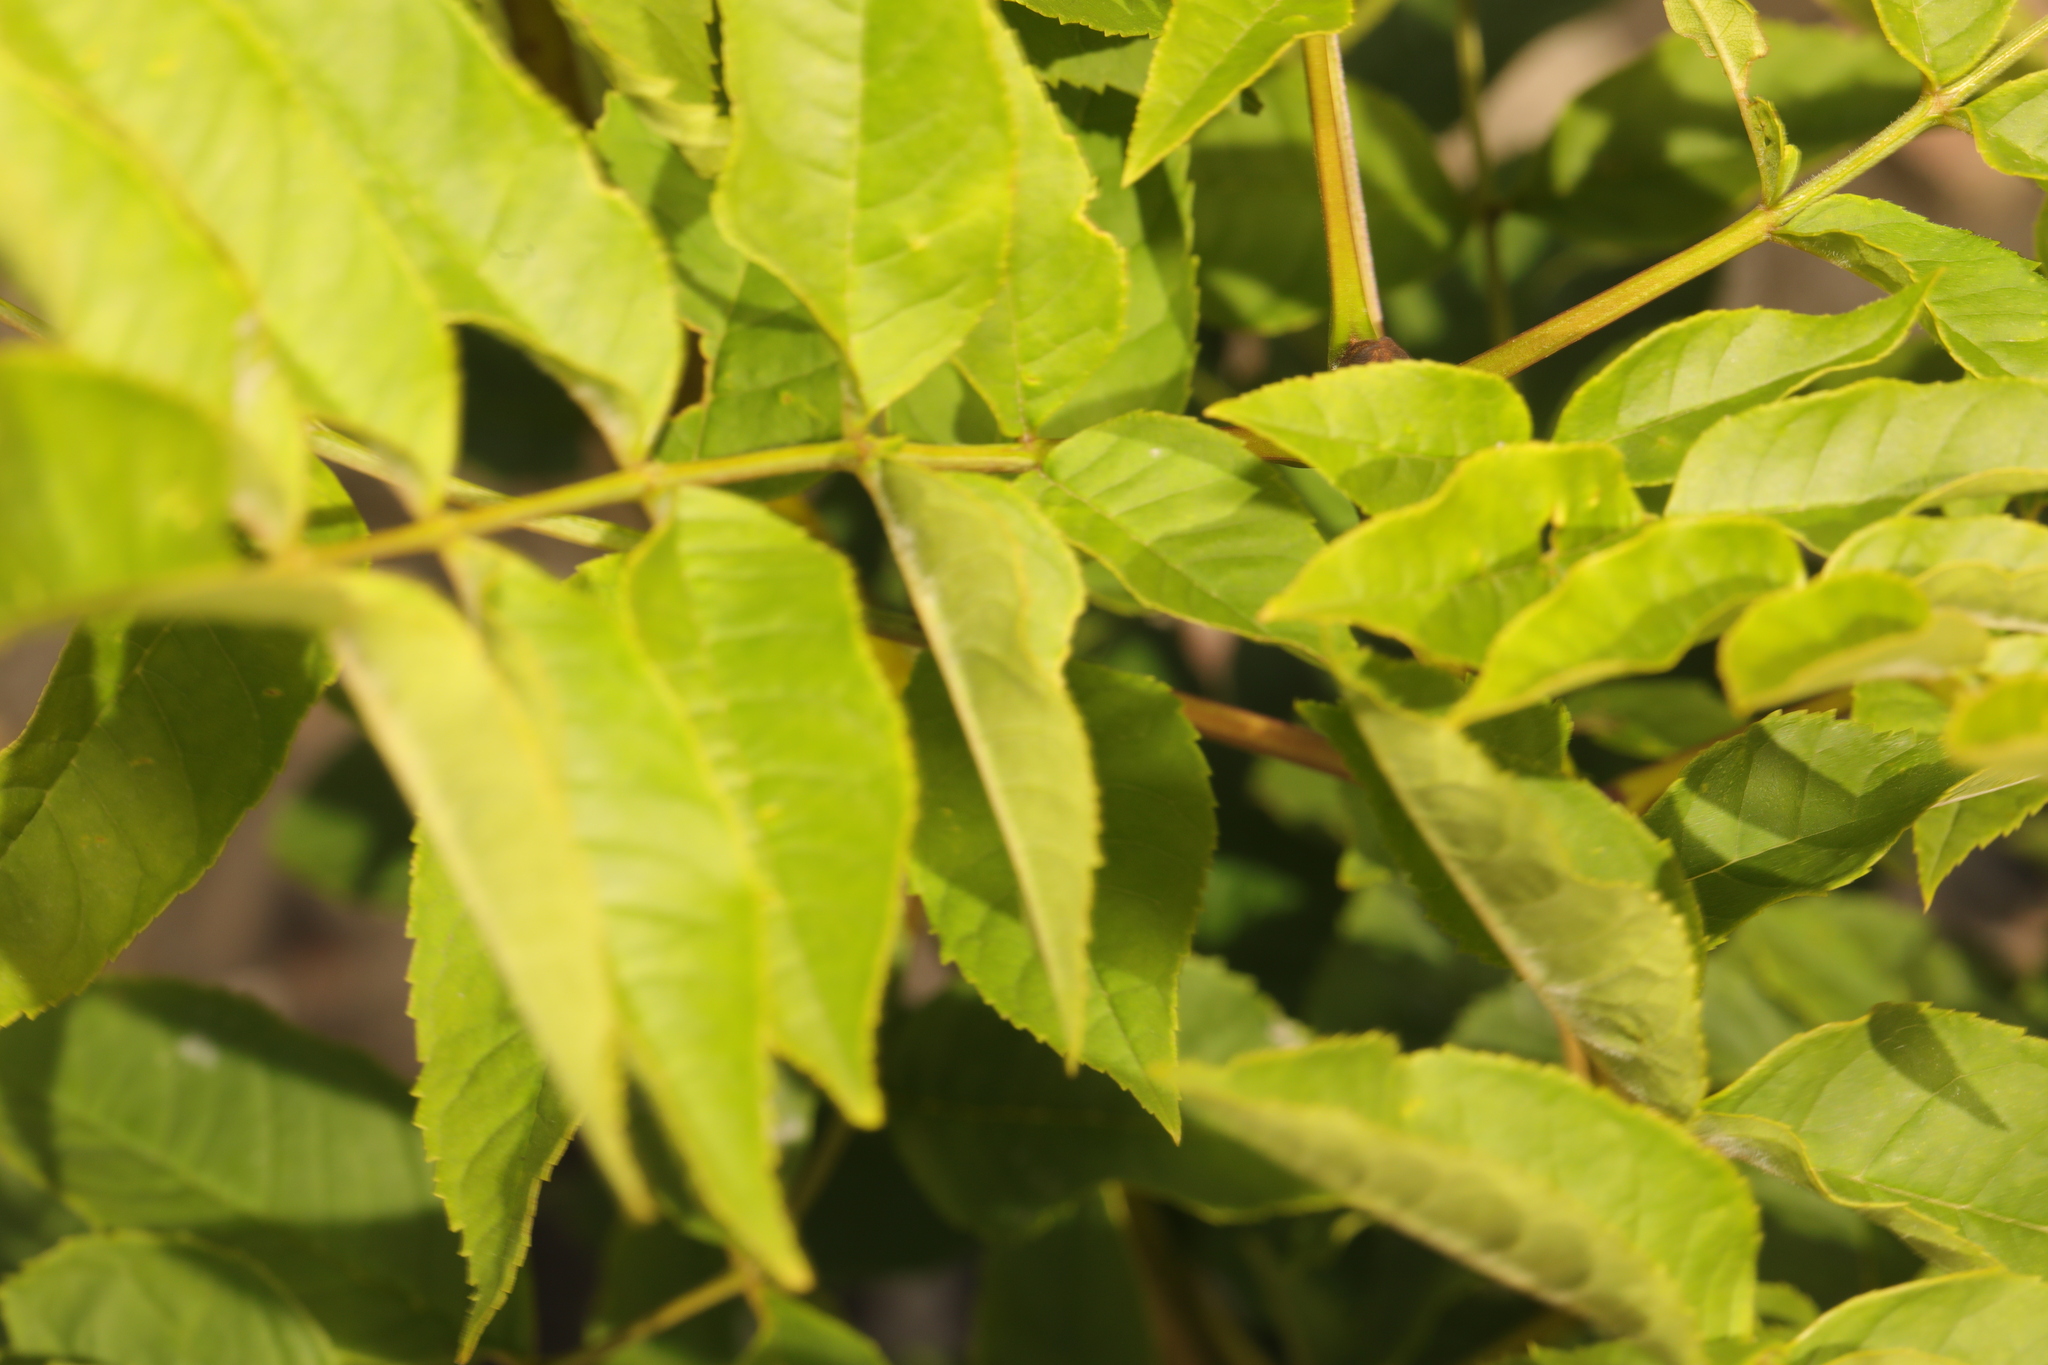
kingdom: Plantae
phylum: Tracheophyta
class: Magnoliopsida
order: Lamiales
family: Oleaceae
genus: Fraxinus
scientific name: Fraxinus excelsior
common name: European ash
